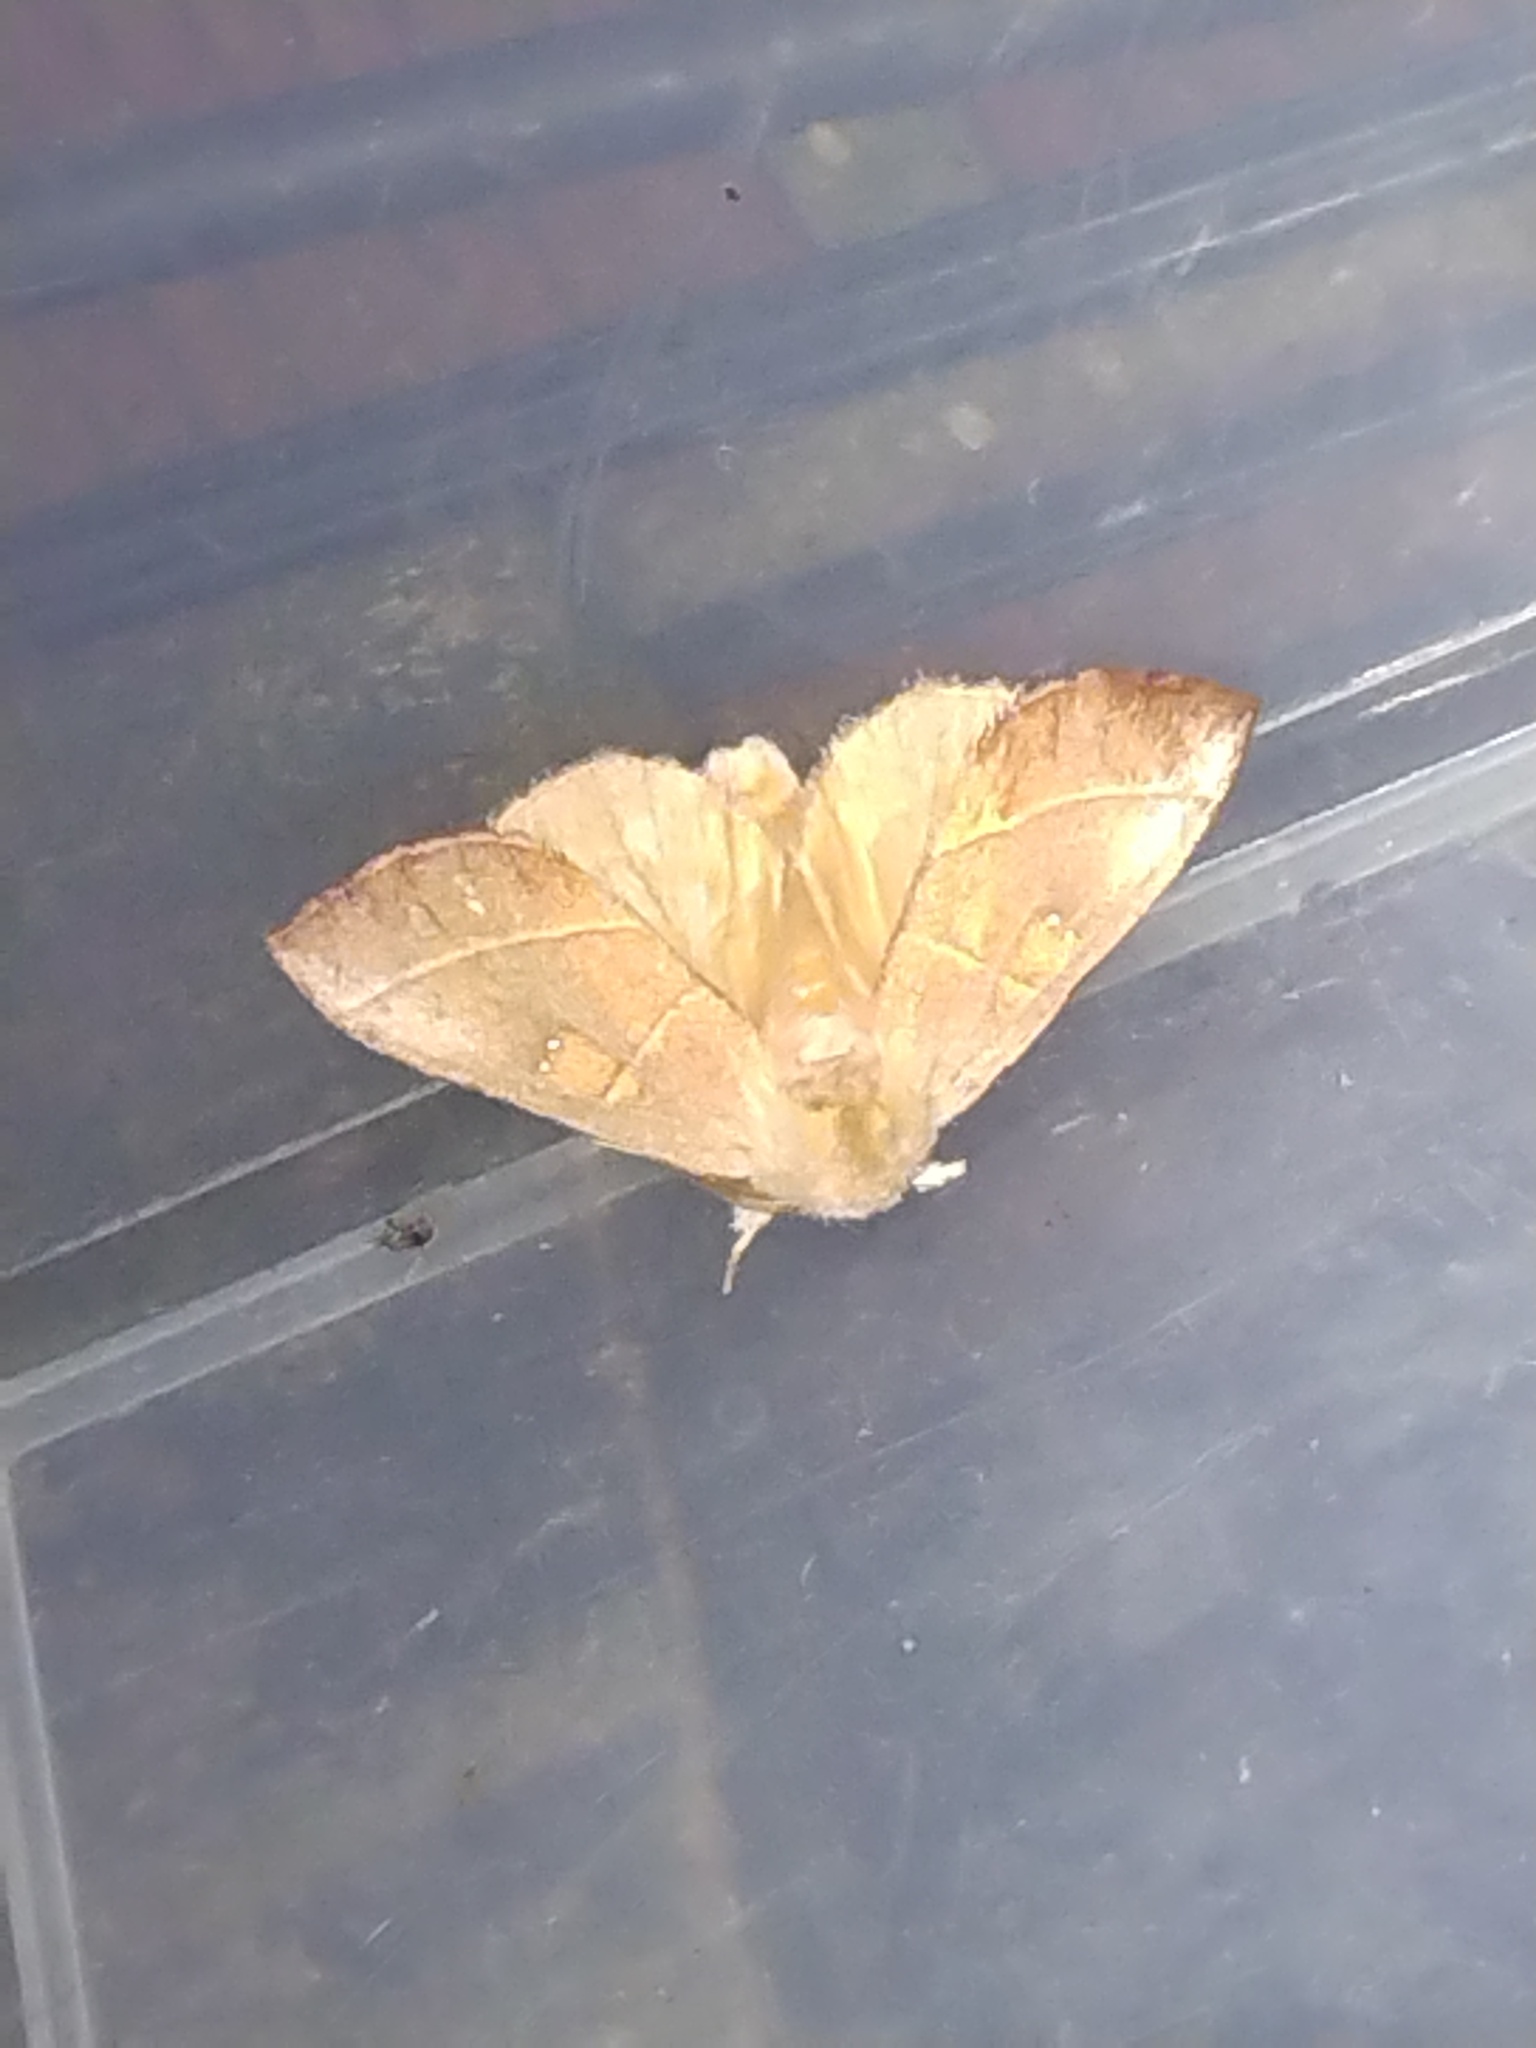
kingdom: Animalia
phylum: Arthropoda
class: Insecta
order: Lepidoptera
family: Notodontidae
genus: Nadata
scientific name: Nadata gibbosa
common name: White-dotted prominent
